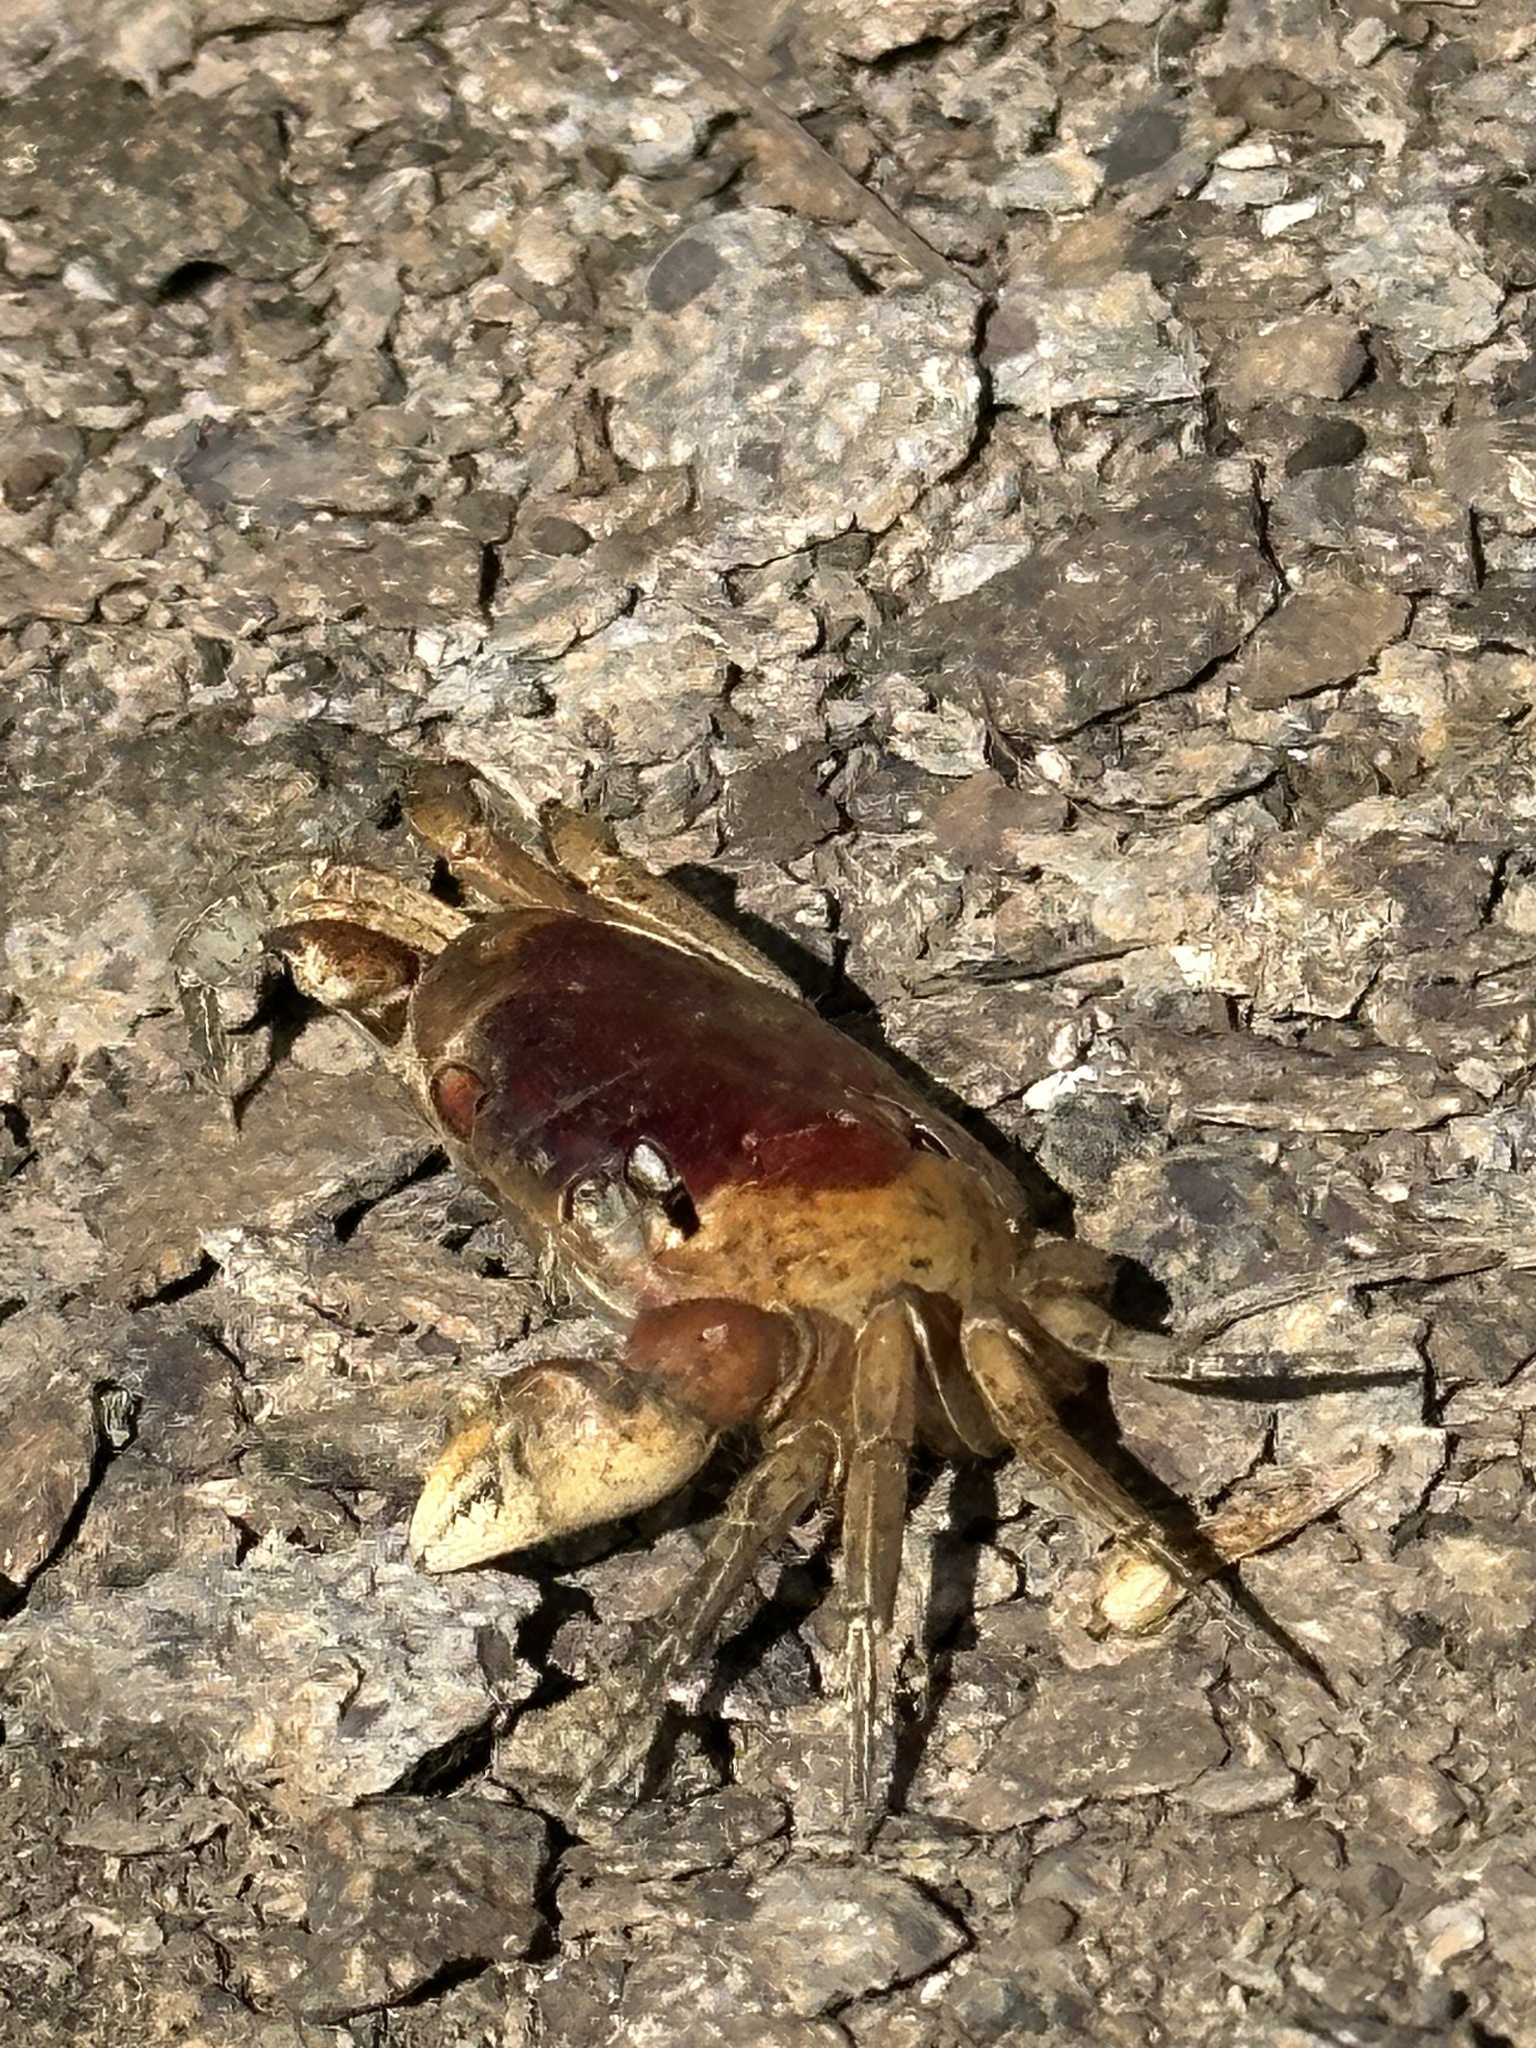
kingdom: Animalia
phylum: Arthropoda
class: Malacostraca
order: Decapoda
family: Gecarcinidae
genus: Gecarcinus
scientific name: Gecarcinus lateralis
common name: Bermuda land crab
